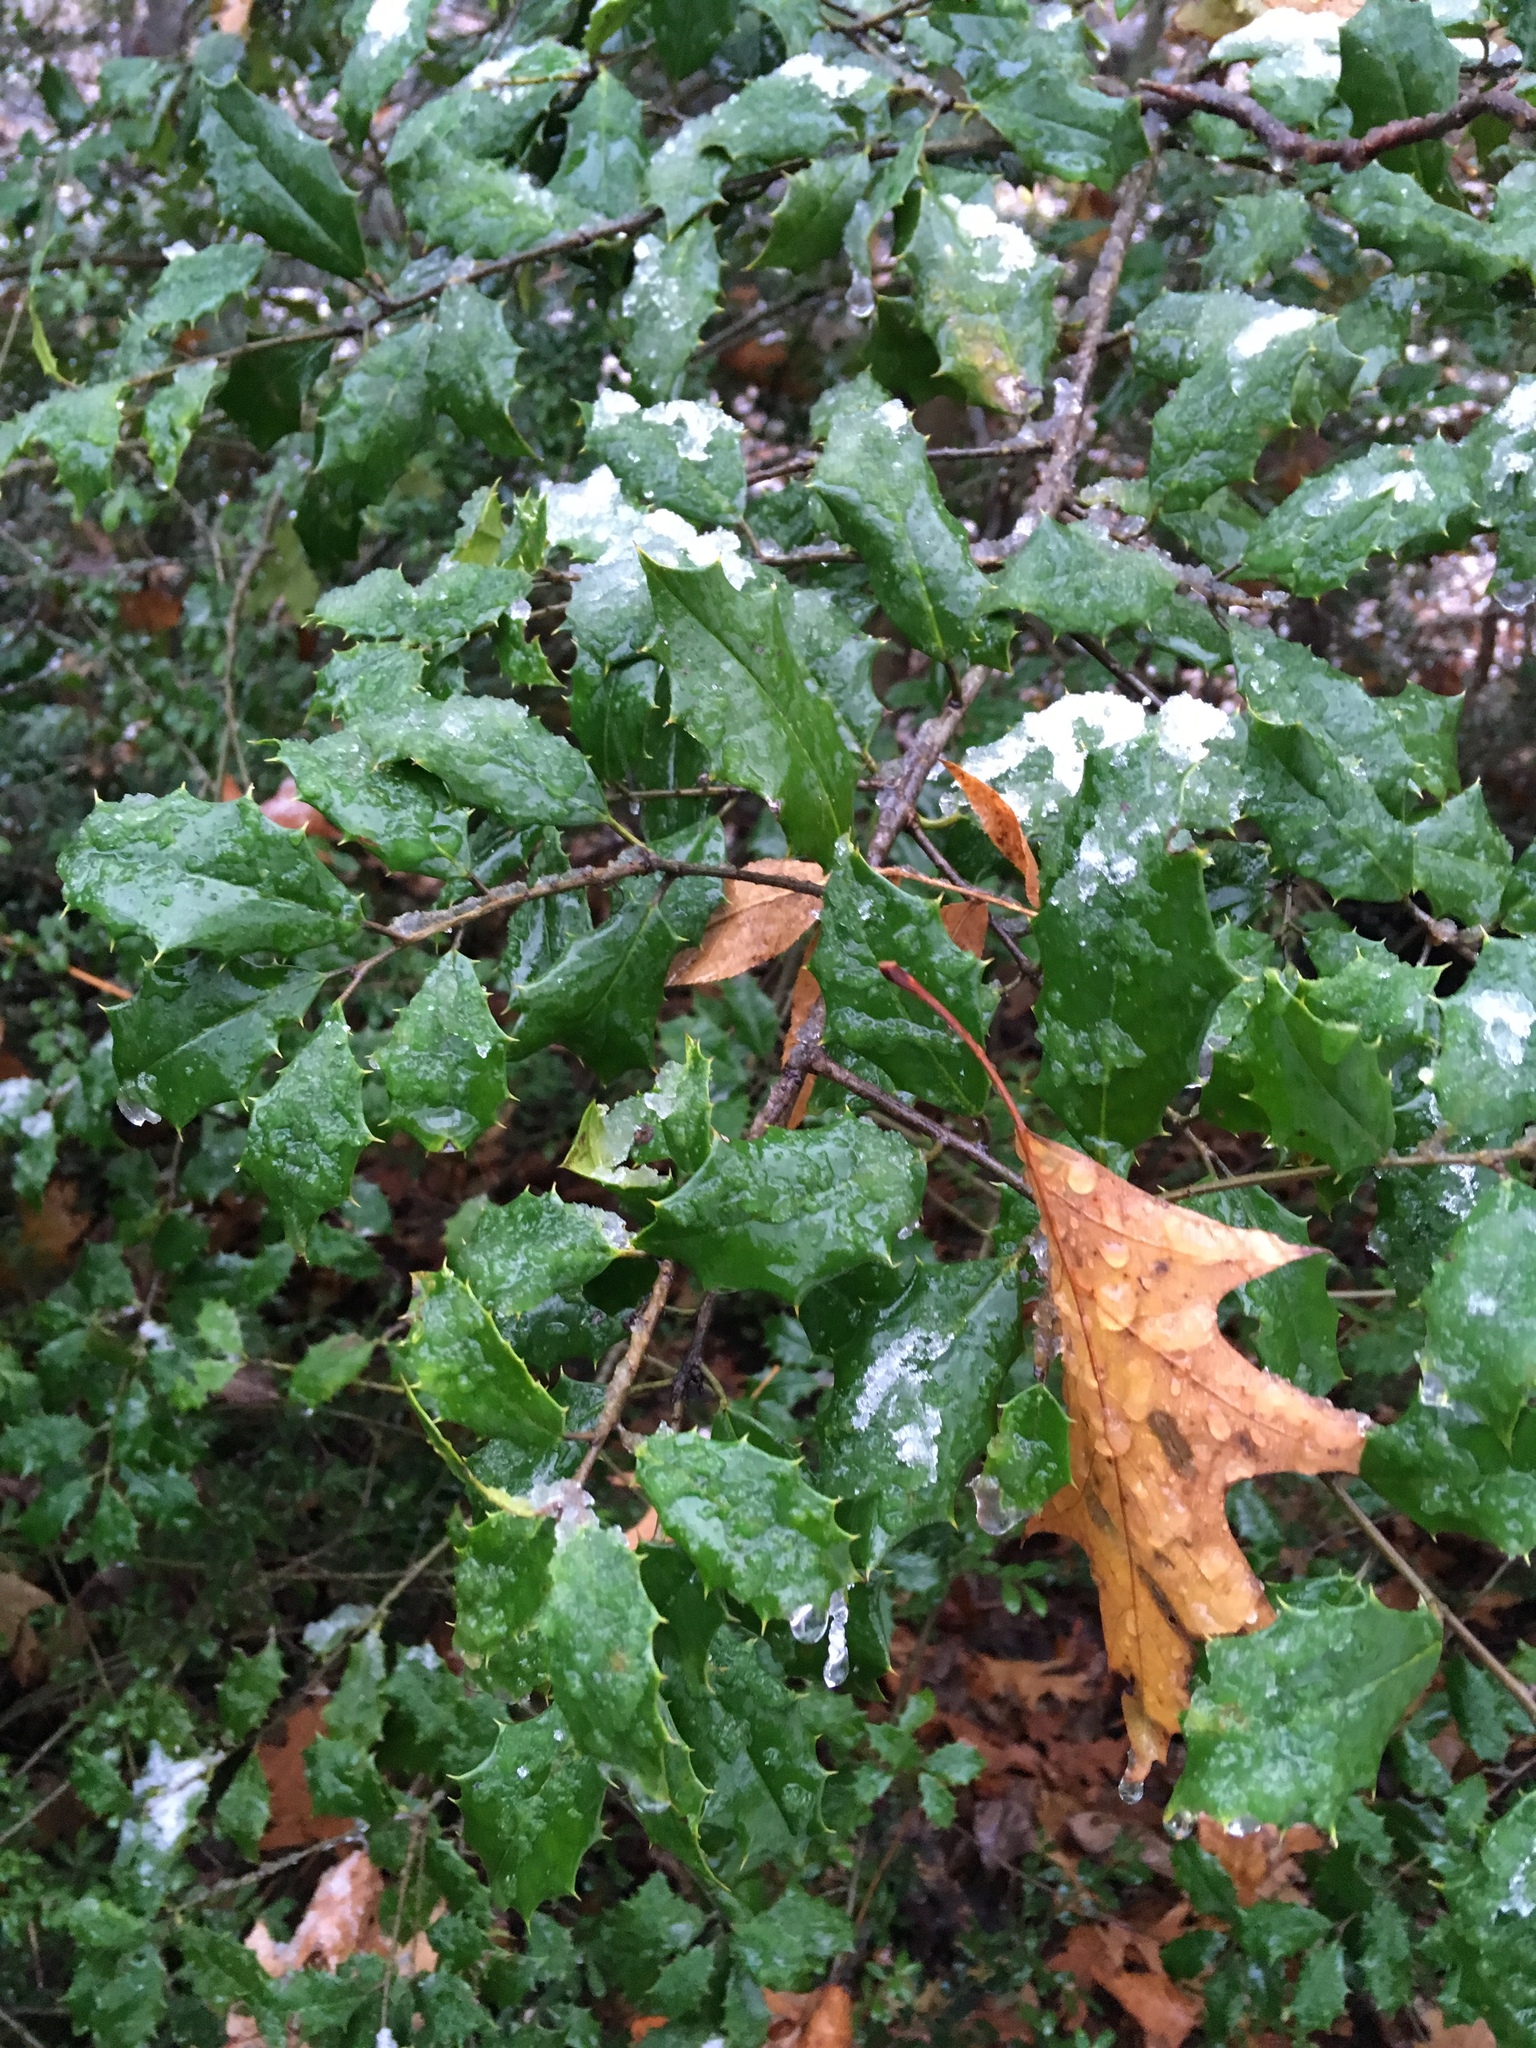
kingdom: Plantae
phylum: Tracheophyta
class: Magnoliopsida
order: Aquifoliales
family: Aquifoliaceae
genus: Ilex
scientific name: Ilex opaca
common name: American holly
